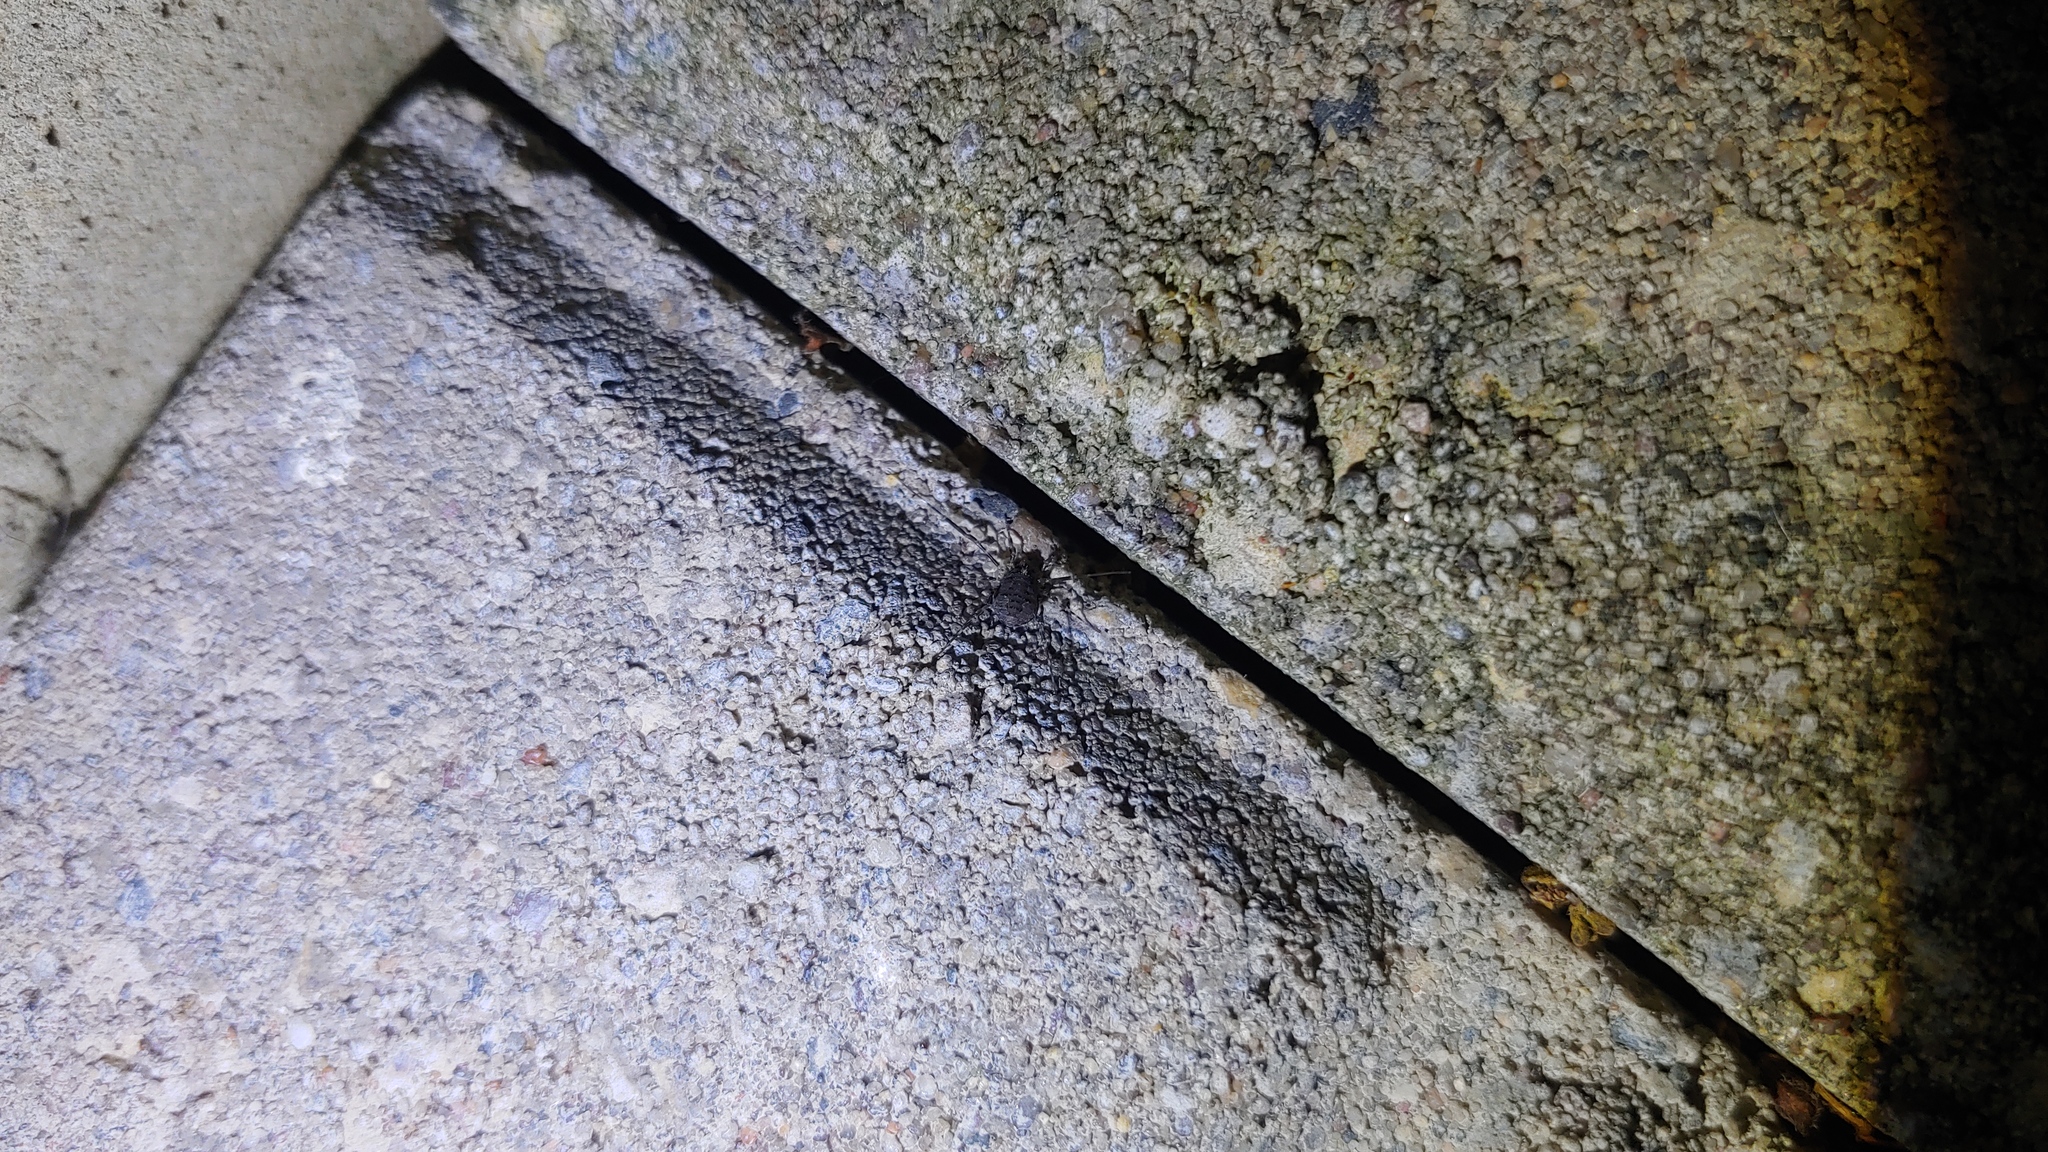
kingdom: Animalia
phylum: Arthropoda
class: Arachnida
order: Opiliones
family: Phalangiidae
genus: Odiellus
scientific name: Odiellus pictus
